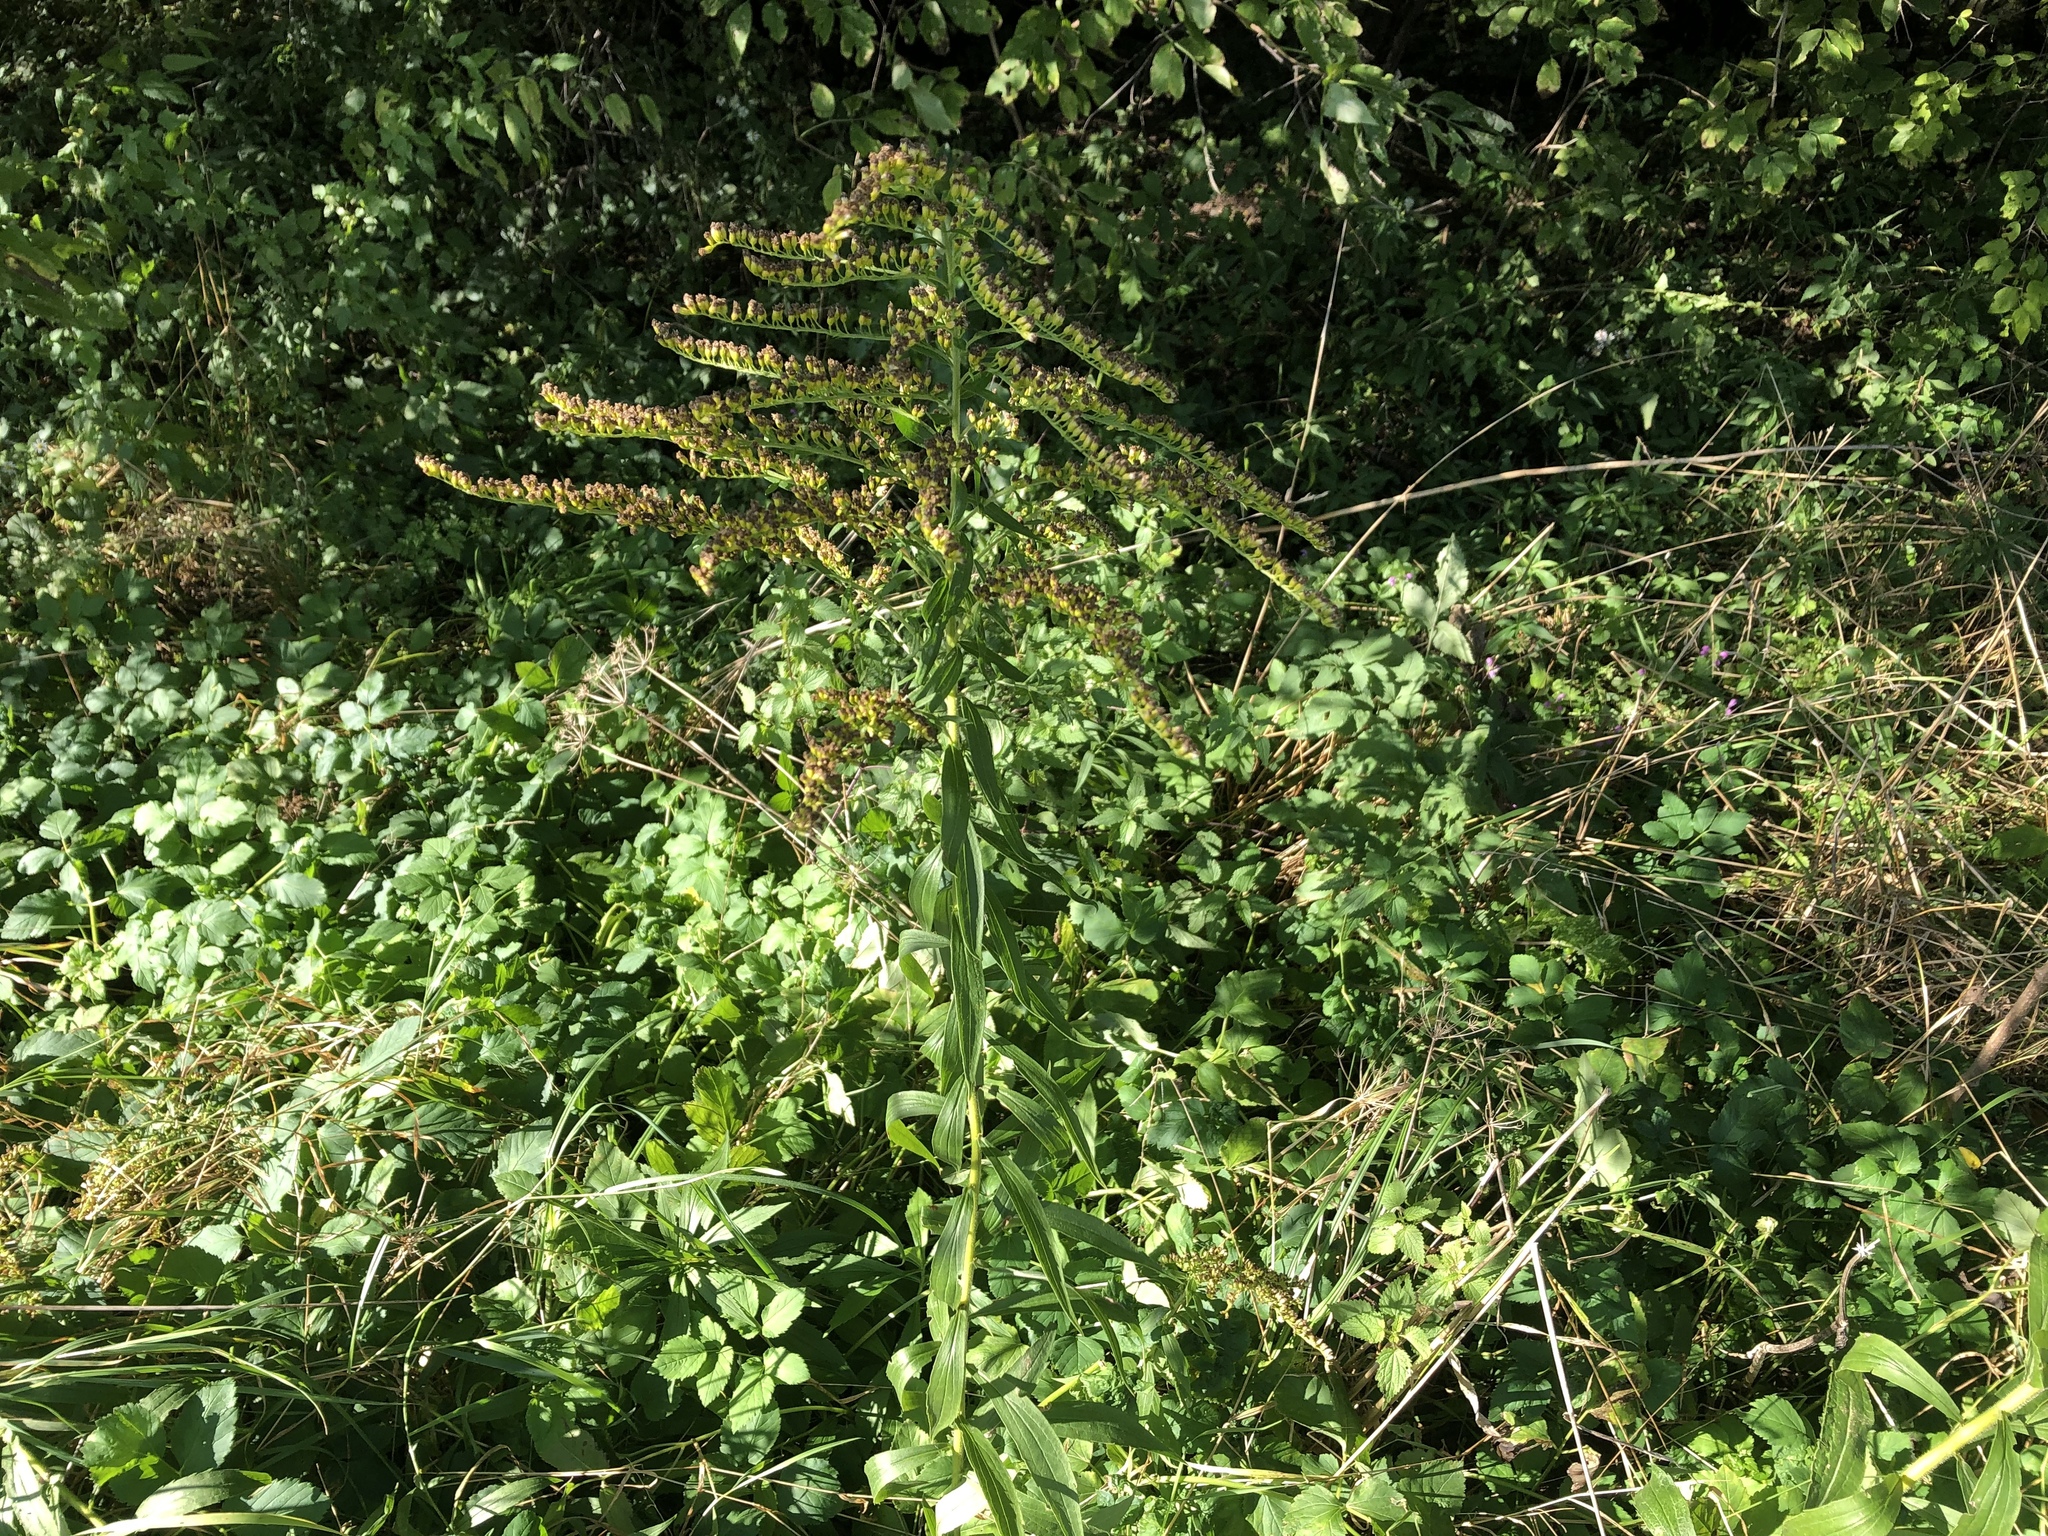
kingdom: Plantae
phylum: Tracheophyta
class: Magnoliopsida
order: Asterales
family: Asteraceae
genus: Solidago
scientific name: Solidago canadensis
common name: Canada goldenrod
